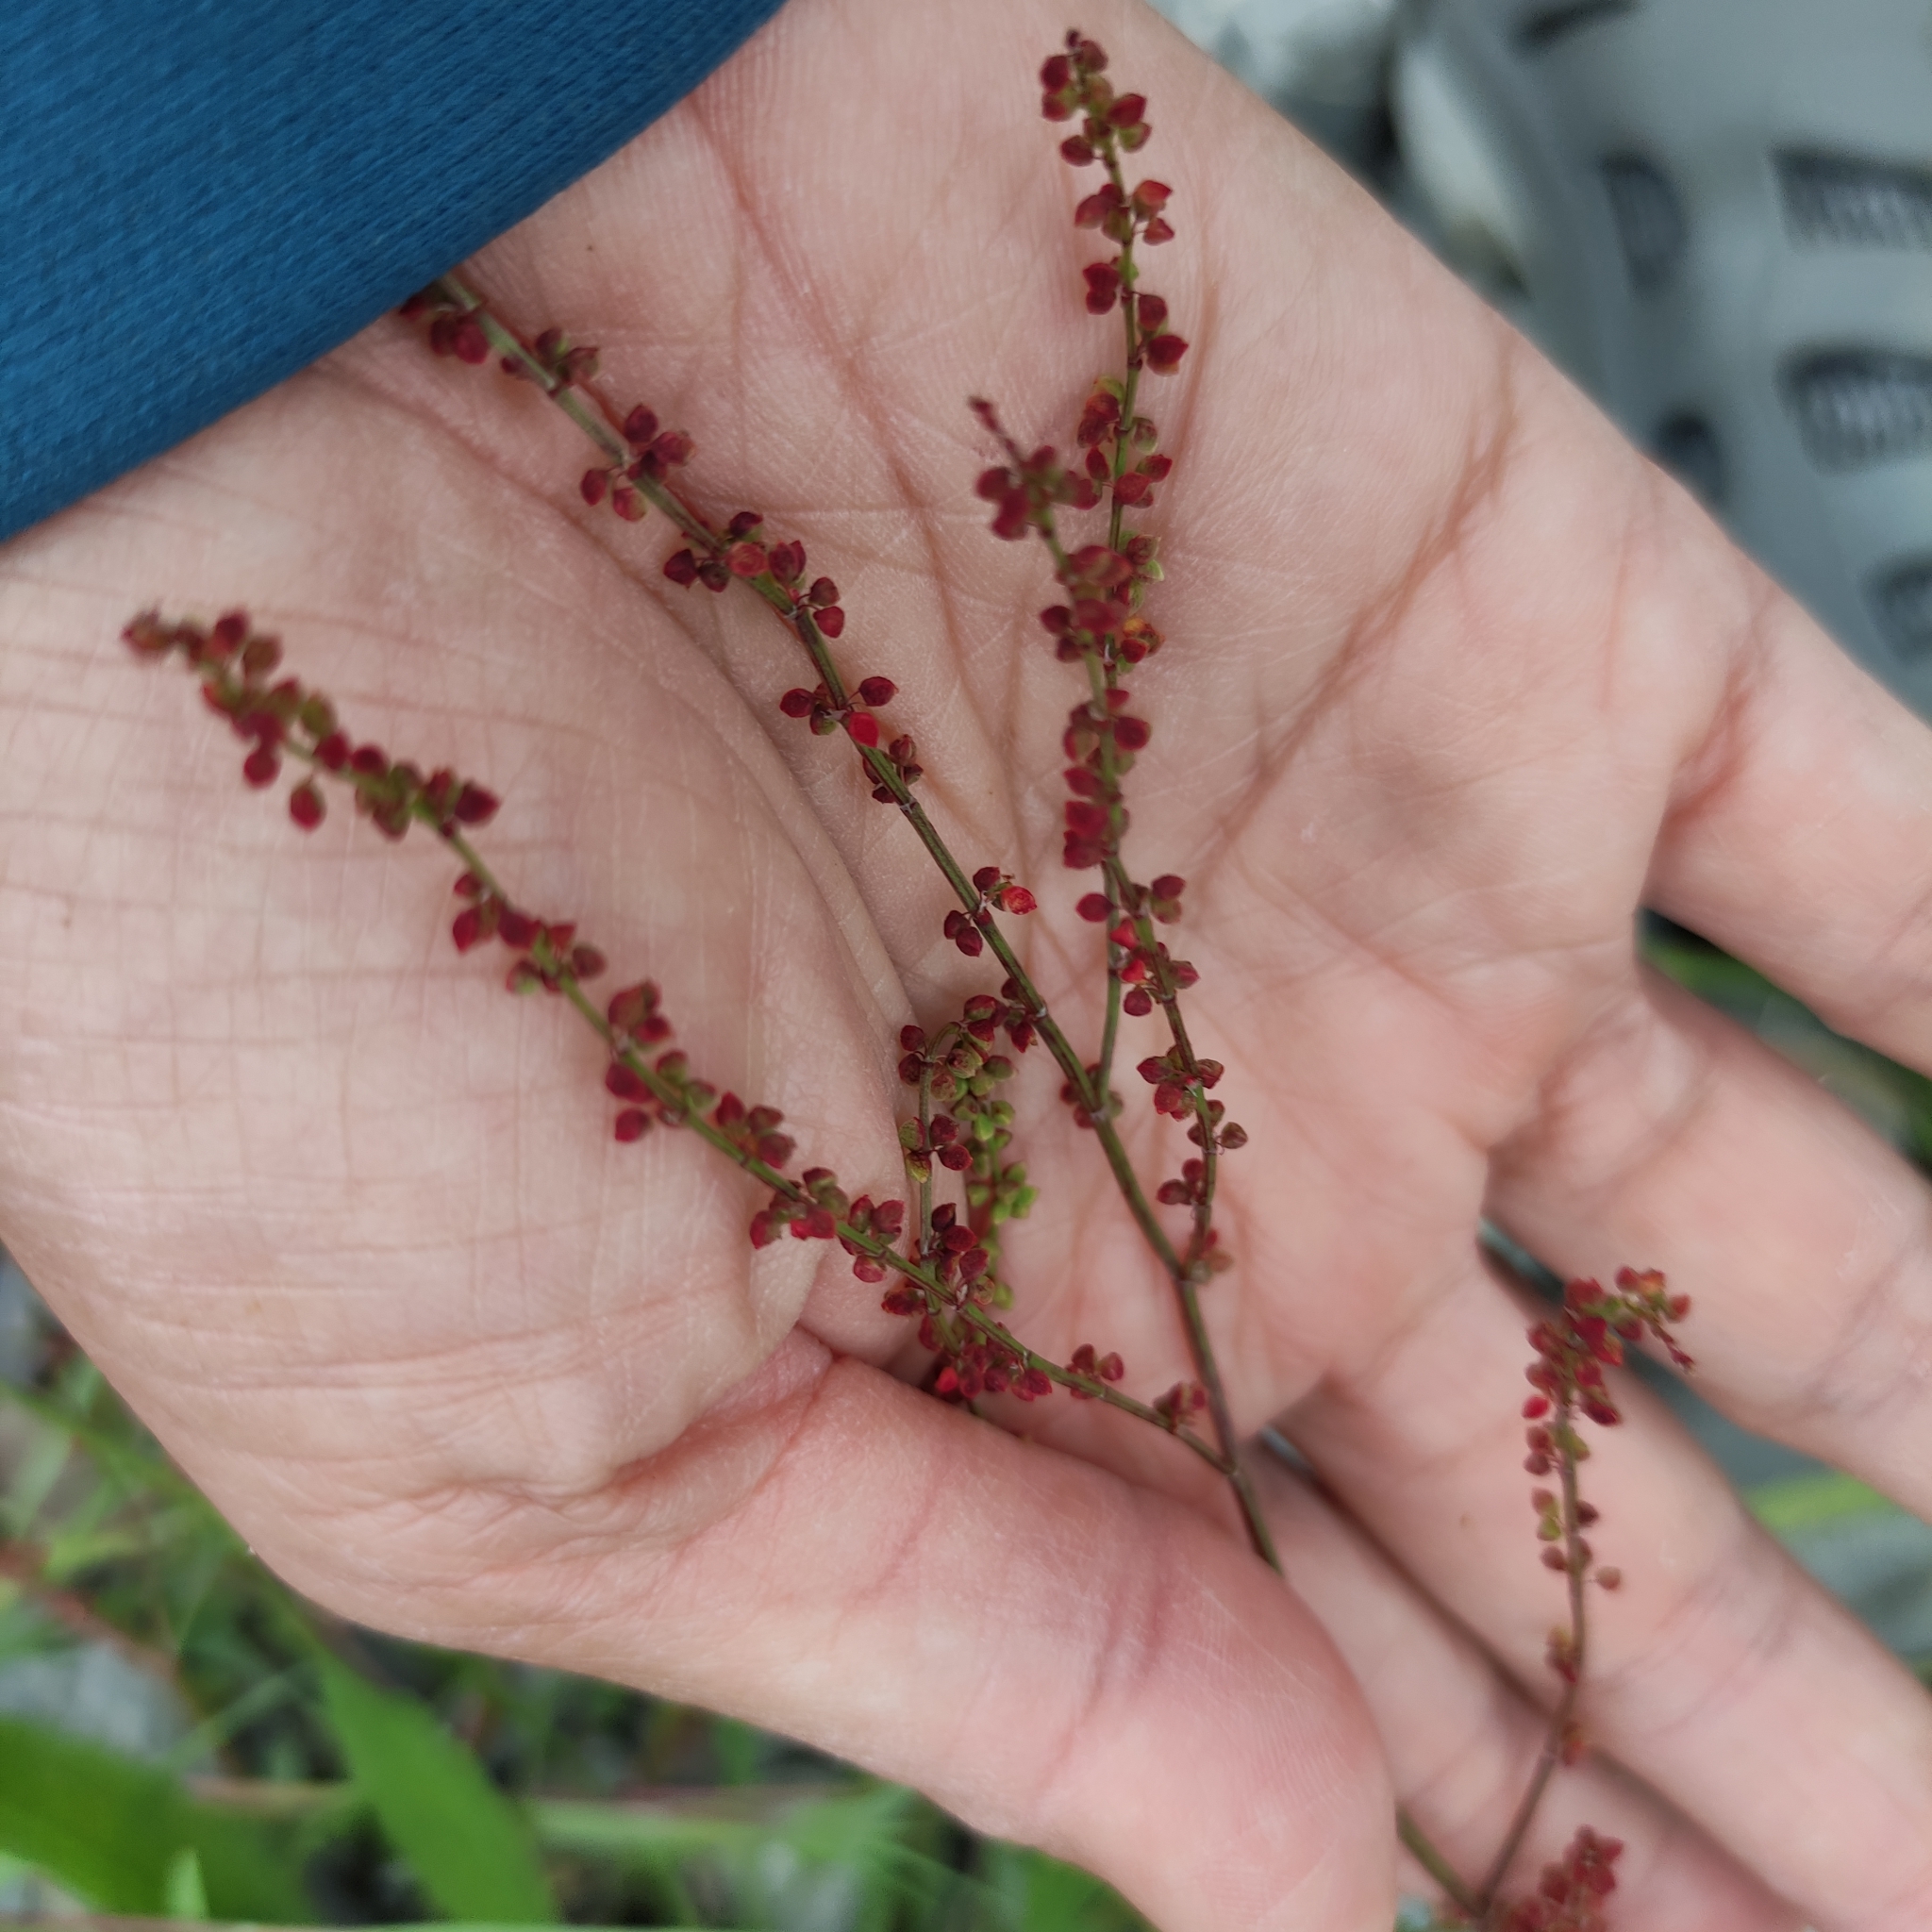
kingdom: Plantae
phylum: Tracheophyta
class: Magnoliopsida
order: Caryophyllales
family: Polygonaceae
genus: Rumex
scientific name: Rumex acetosella
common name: Common sheep sorrel
